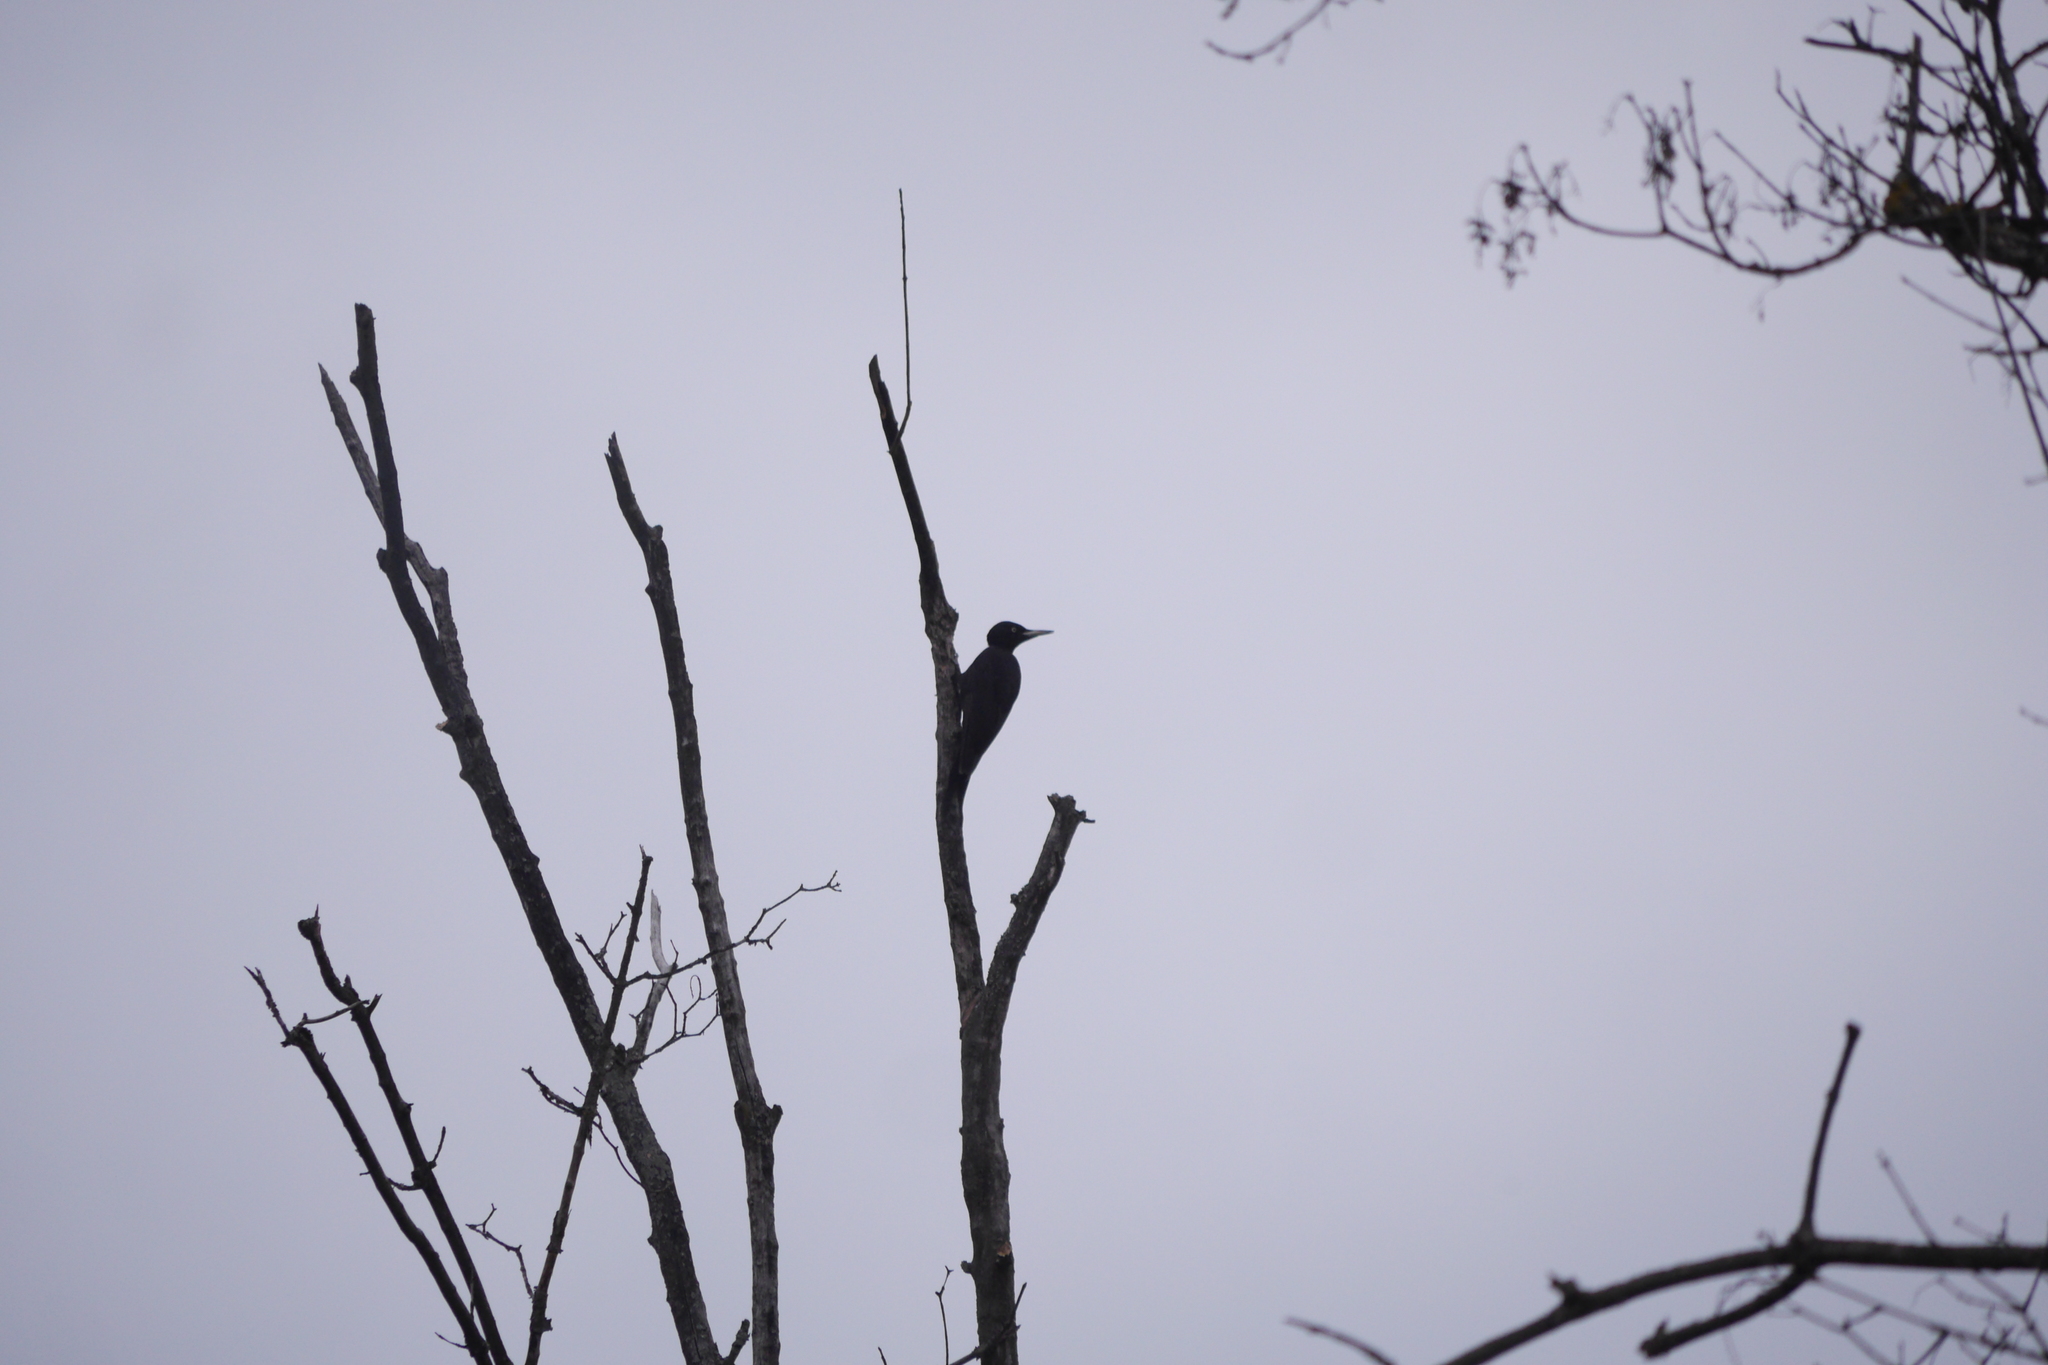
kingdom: Animalia
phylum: Chordata
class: Aves
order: Piciformes
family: Picidae
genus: Dryocopus
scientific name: Dryocopus martius
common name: Black woodpecker
